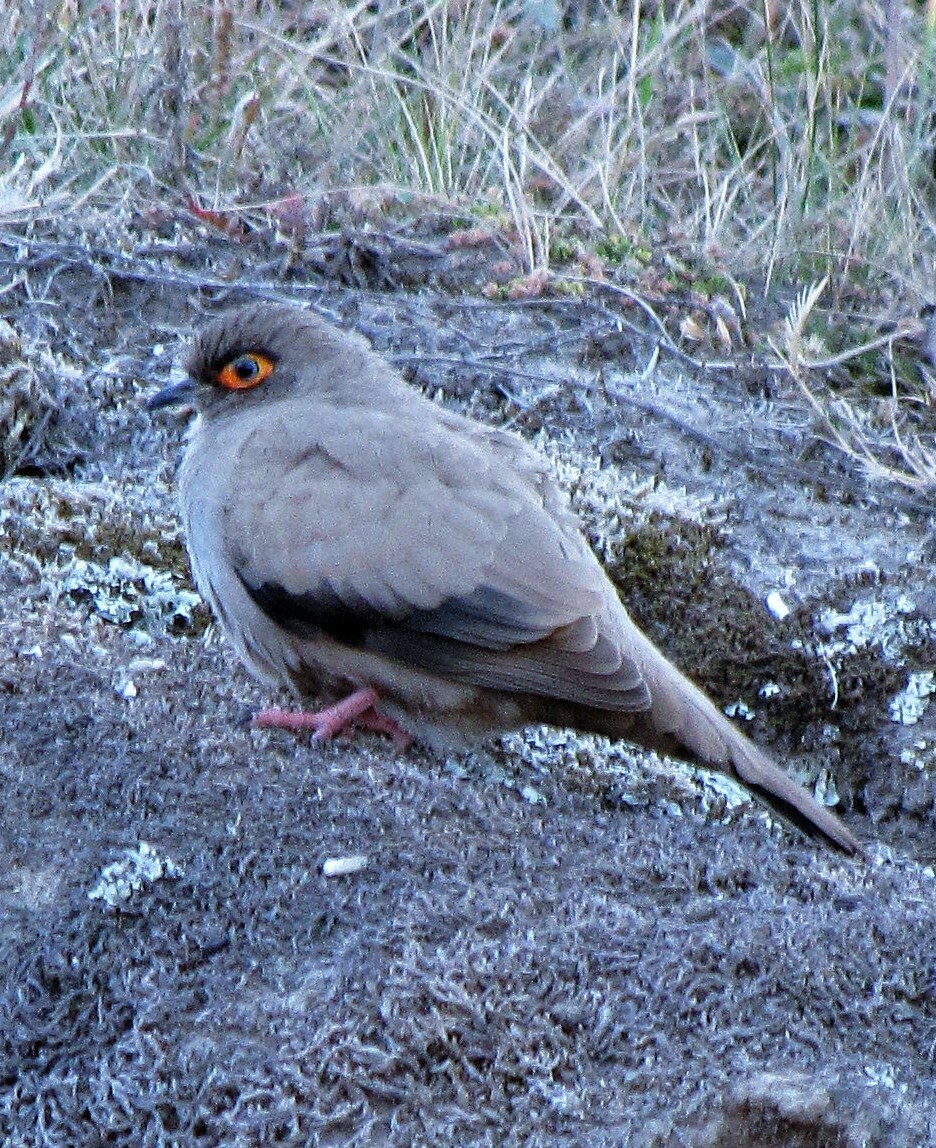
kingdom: Animalia
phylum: Chordata
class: Aves
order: Columbiformes
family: Columbidae
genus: Metriopelia
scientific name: Metriopelia morenoi
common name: Moreno's ground dove
